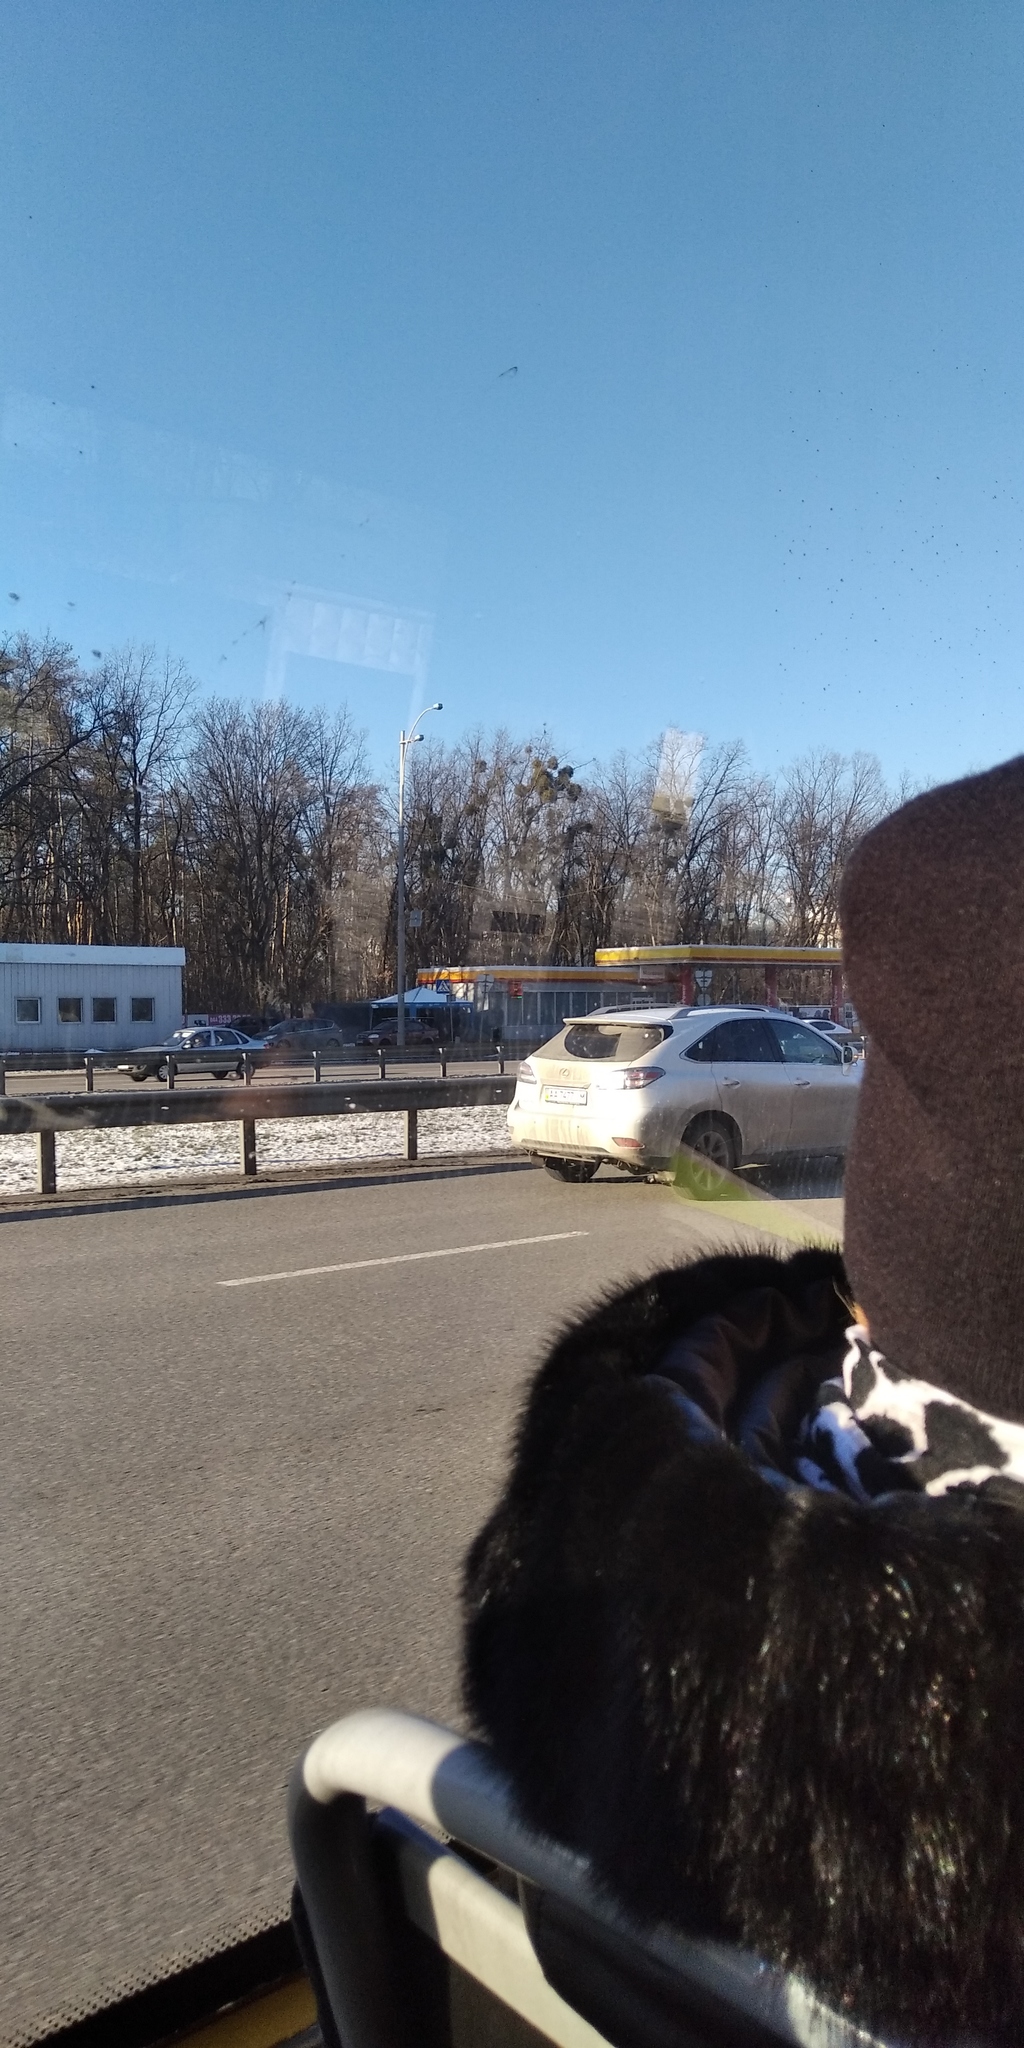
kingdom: Plantae
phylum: Tracheophyta
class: Magnoliopsida
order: Santalales
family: Viscaceae
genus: Viscum
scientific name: Viscum album
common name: Mistletoe
